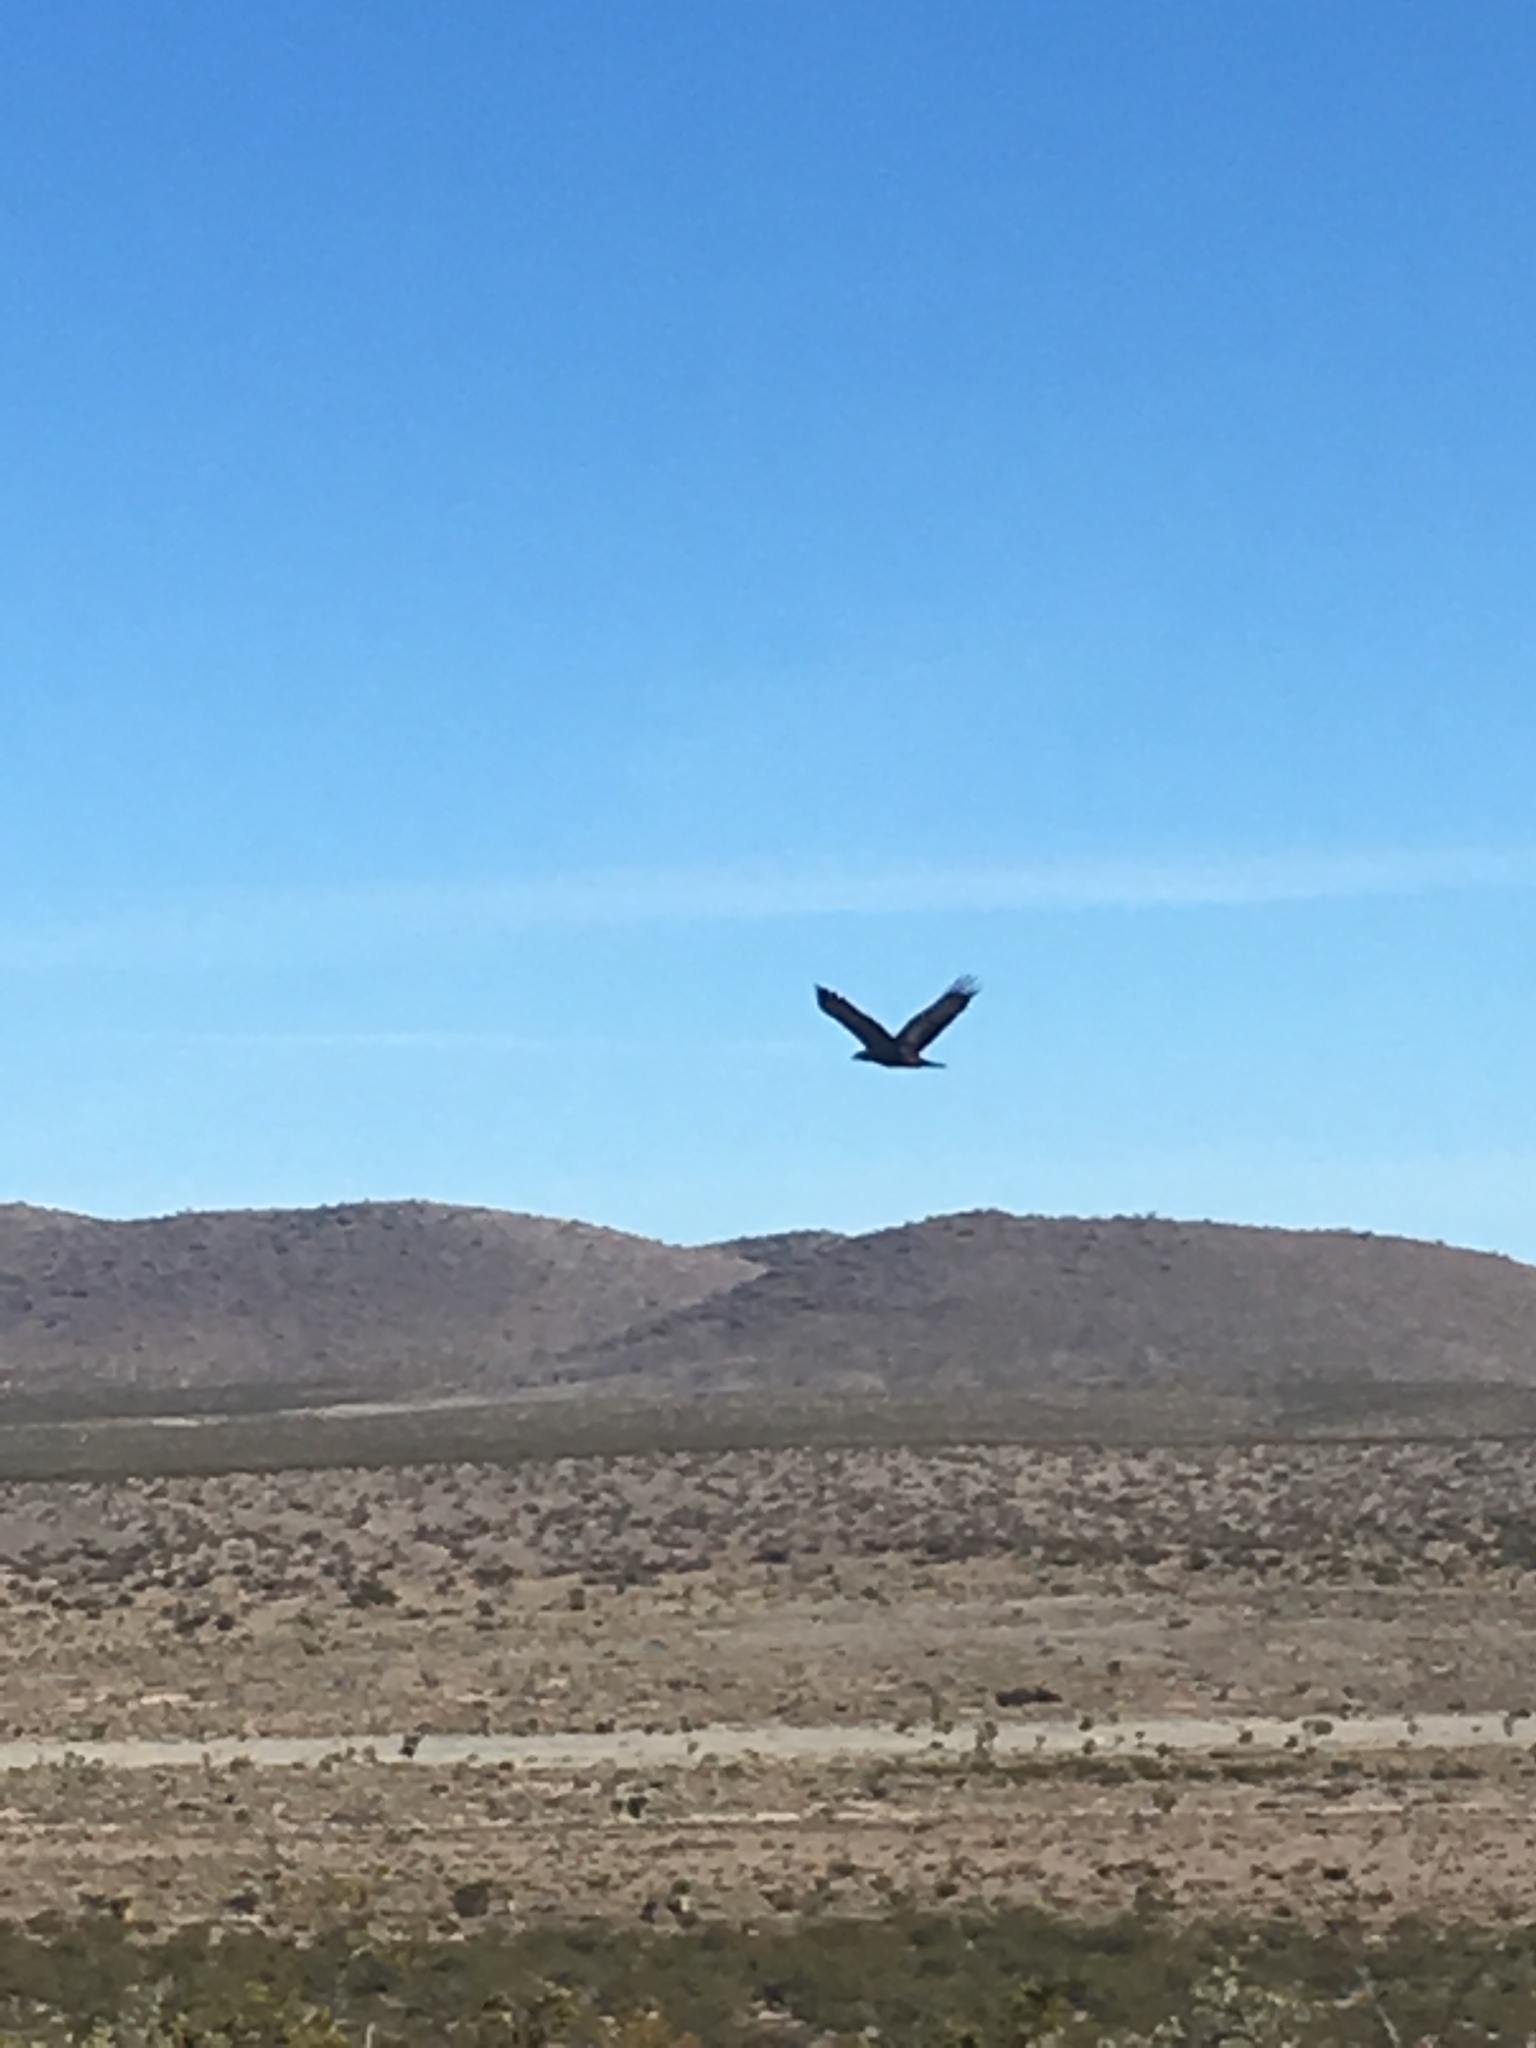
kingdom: Animalia
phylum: Chordata
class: Aves
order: Accipitriformes
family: Accipitridae
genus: Aquila
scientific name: Aquila chrysaetos
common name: Golden eagle
